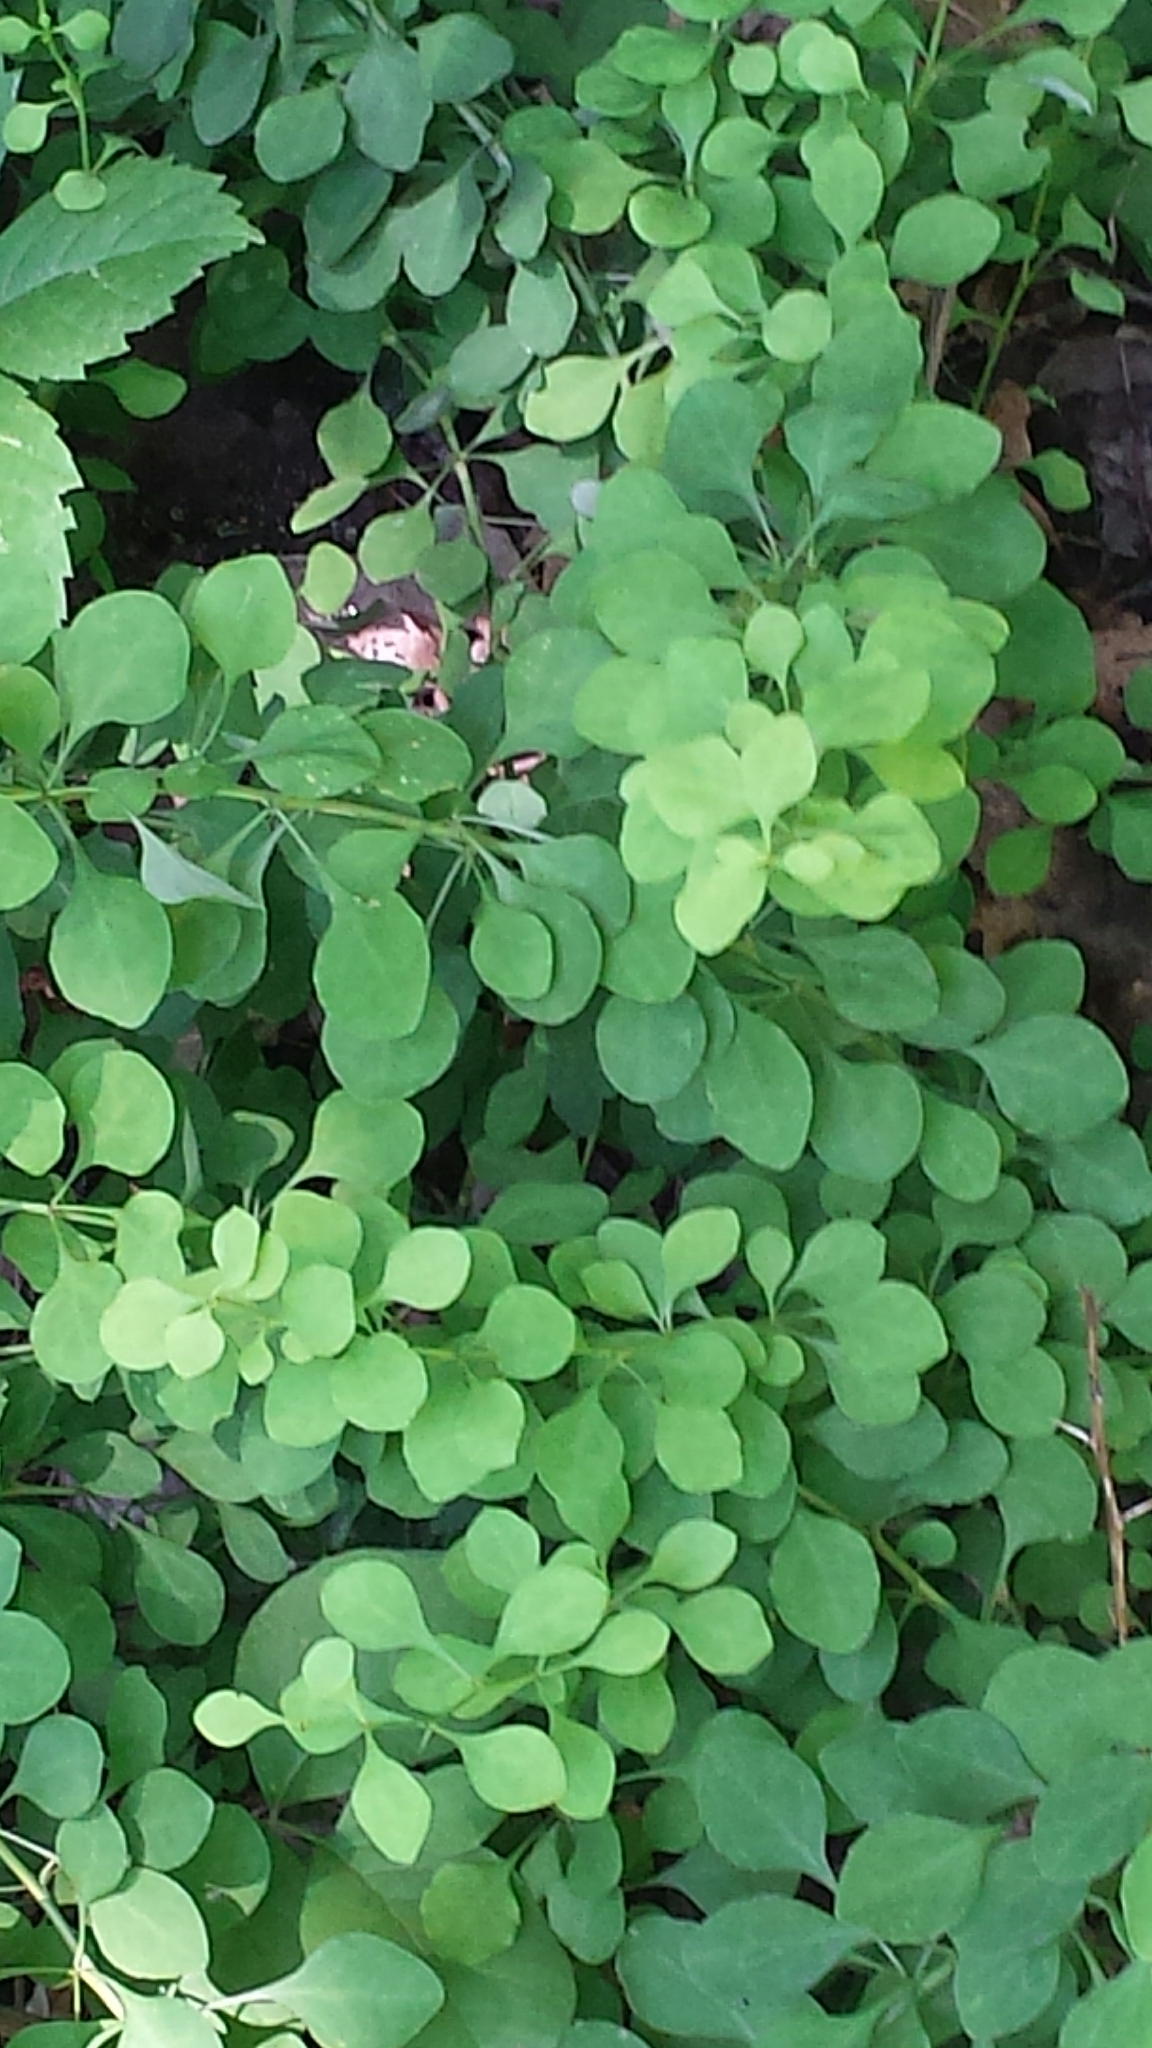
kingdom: Plantae
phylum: Tracheophyta
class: Magnoliopsida
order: Ranunculales
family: Berberidaceae
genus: Berberis
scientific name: Berberis thunbergii
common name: Japanese barberry
